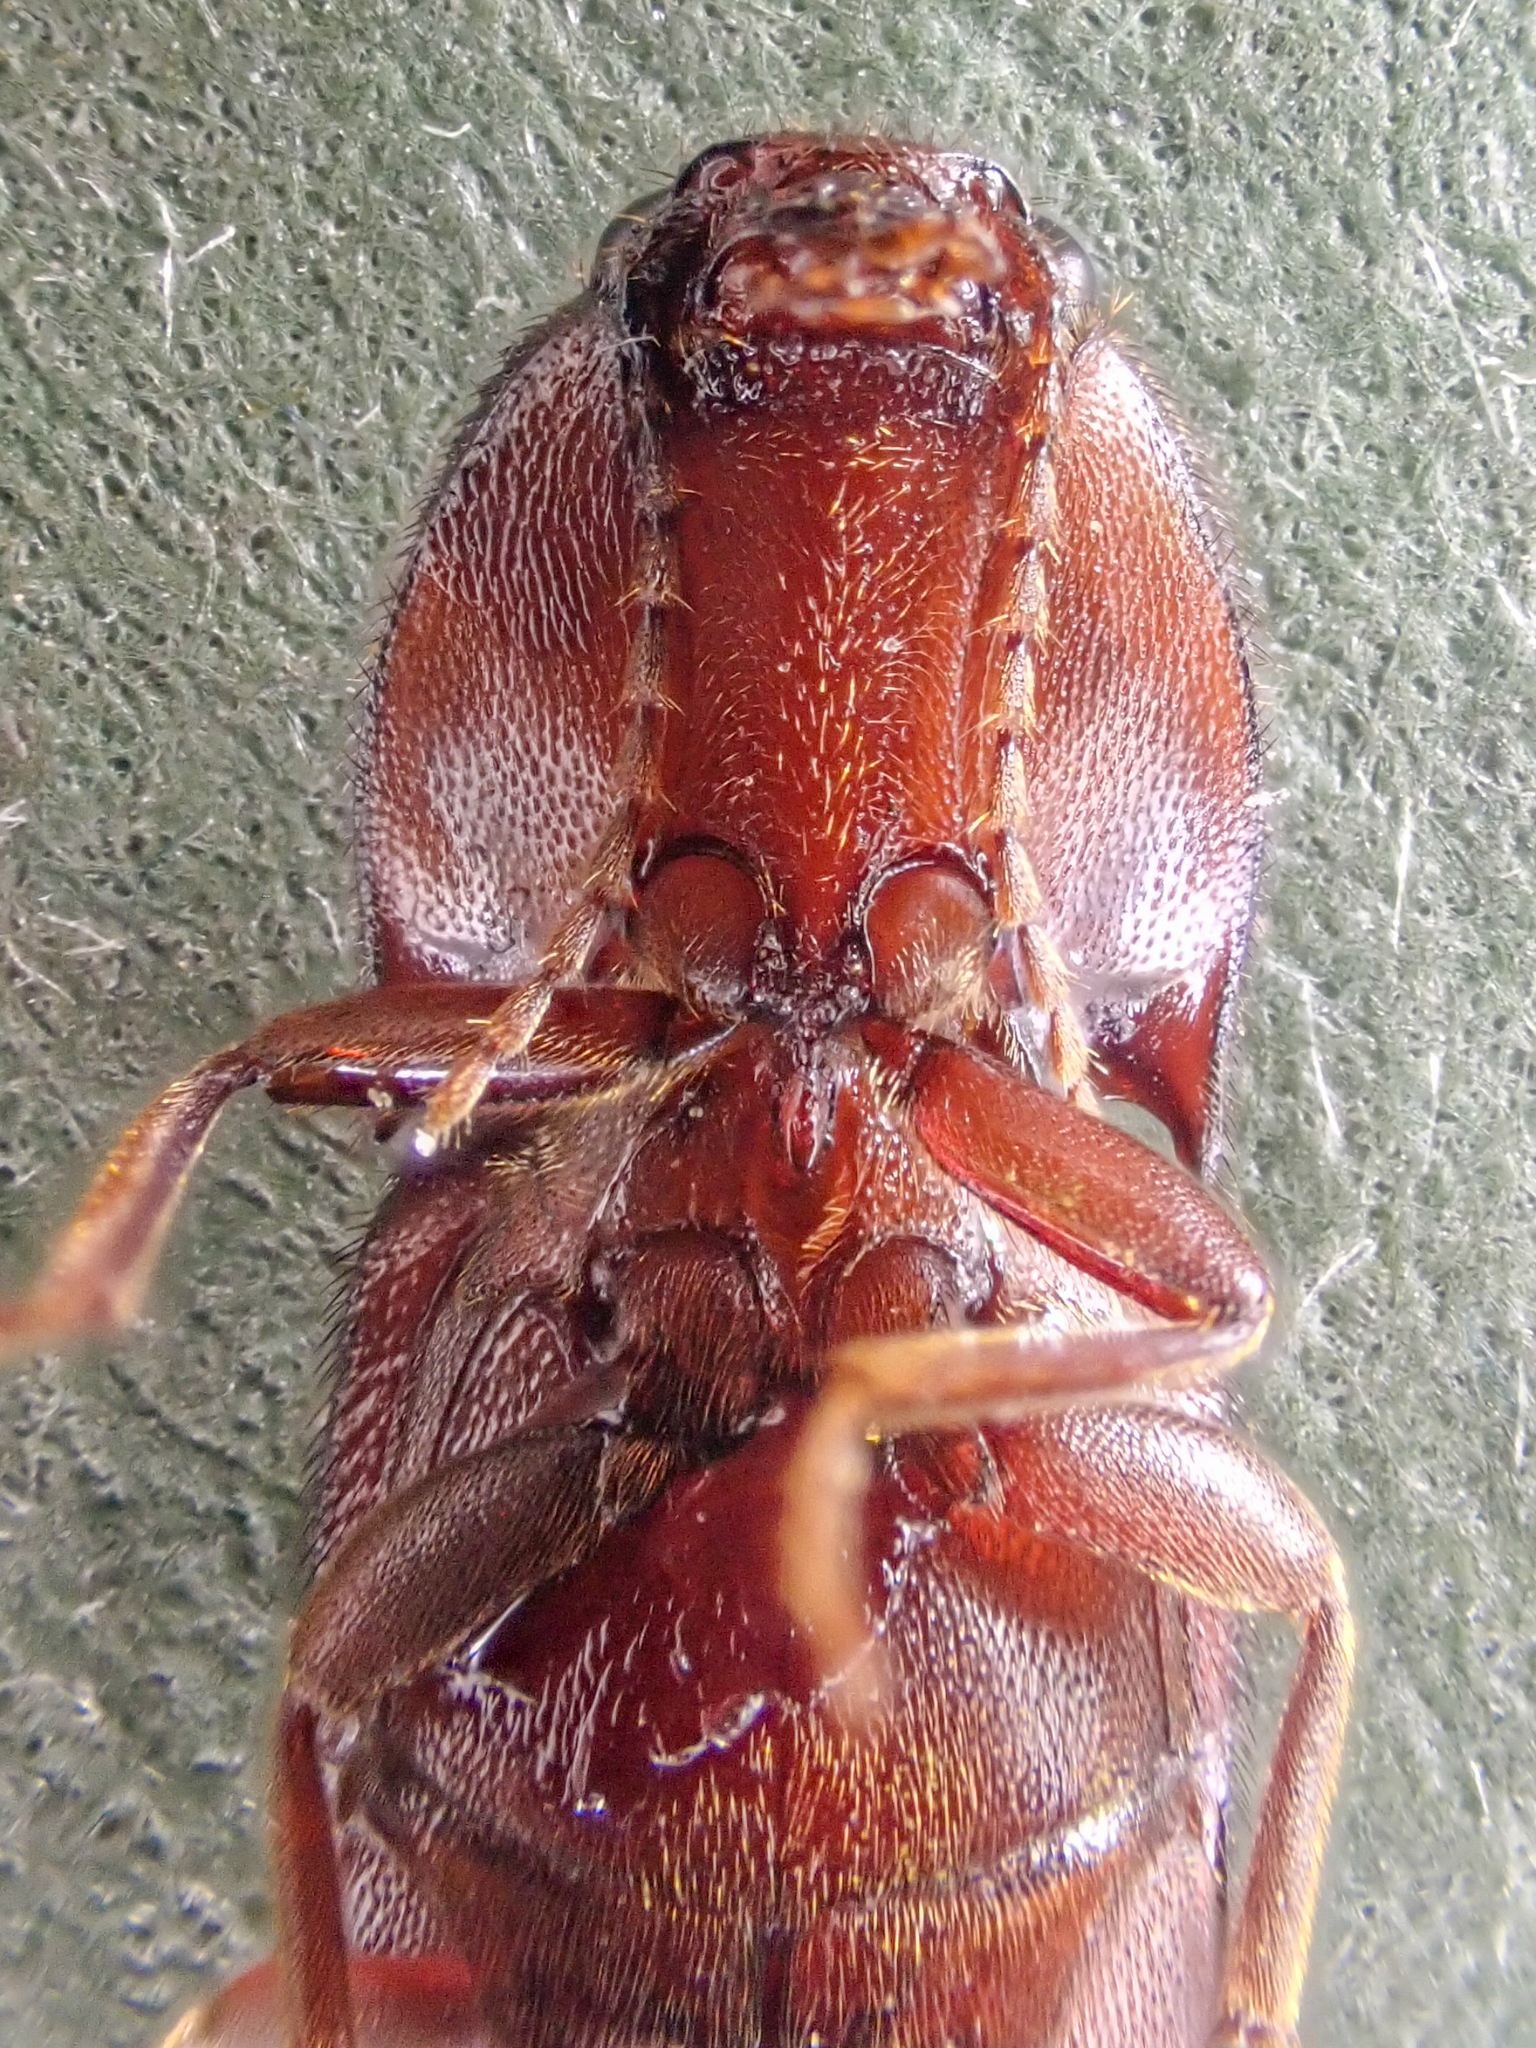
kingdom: Animalia
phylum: Arthropoda
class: Insecta
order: Coleoptera
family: Elateridae
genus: Ampedus
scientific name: Ampedus rhodopus
